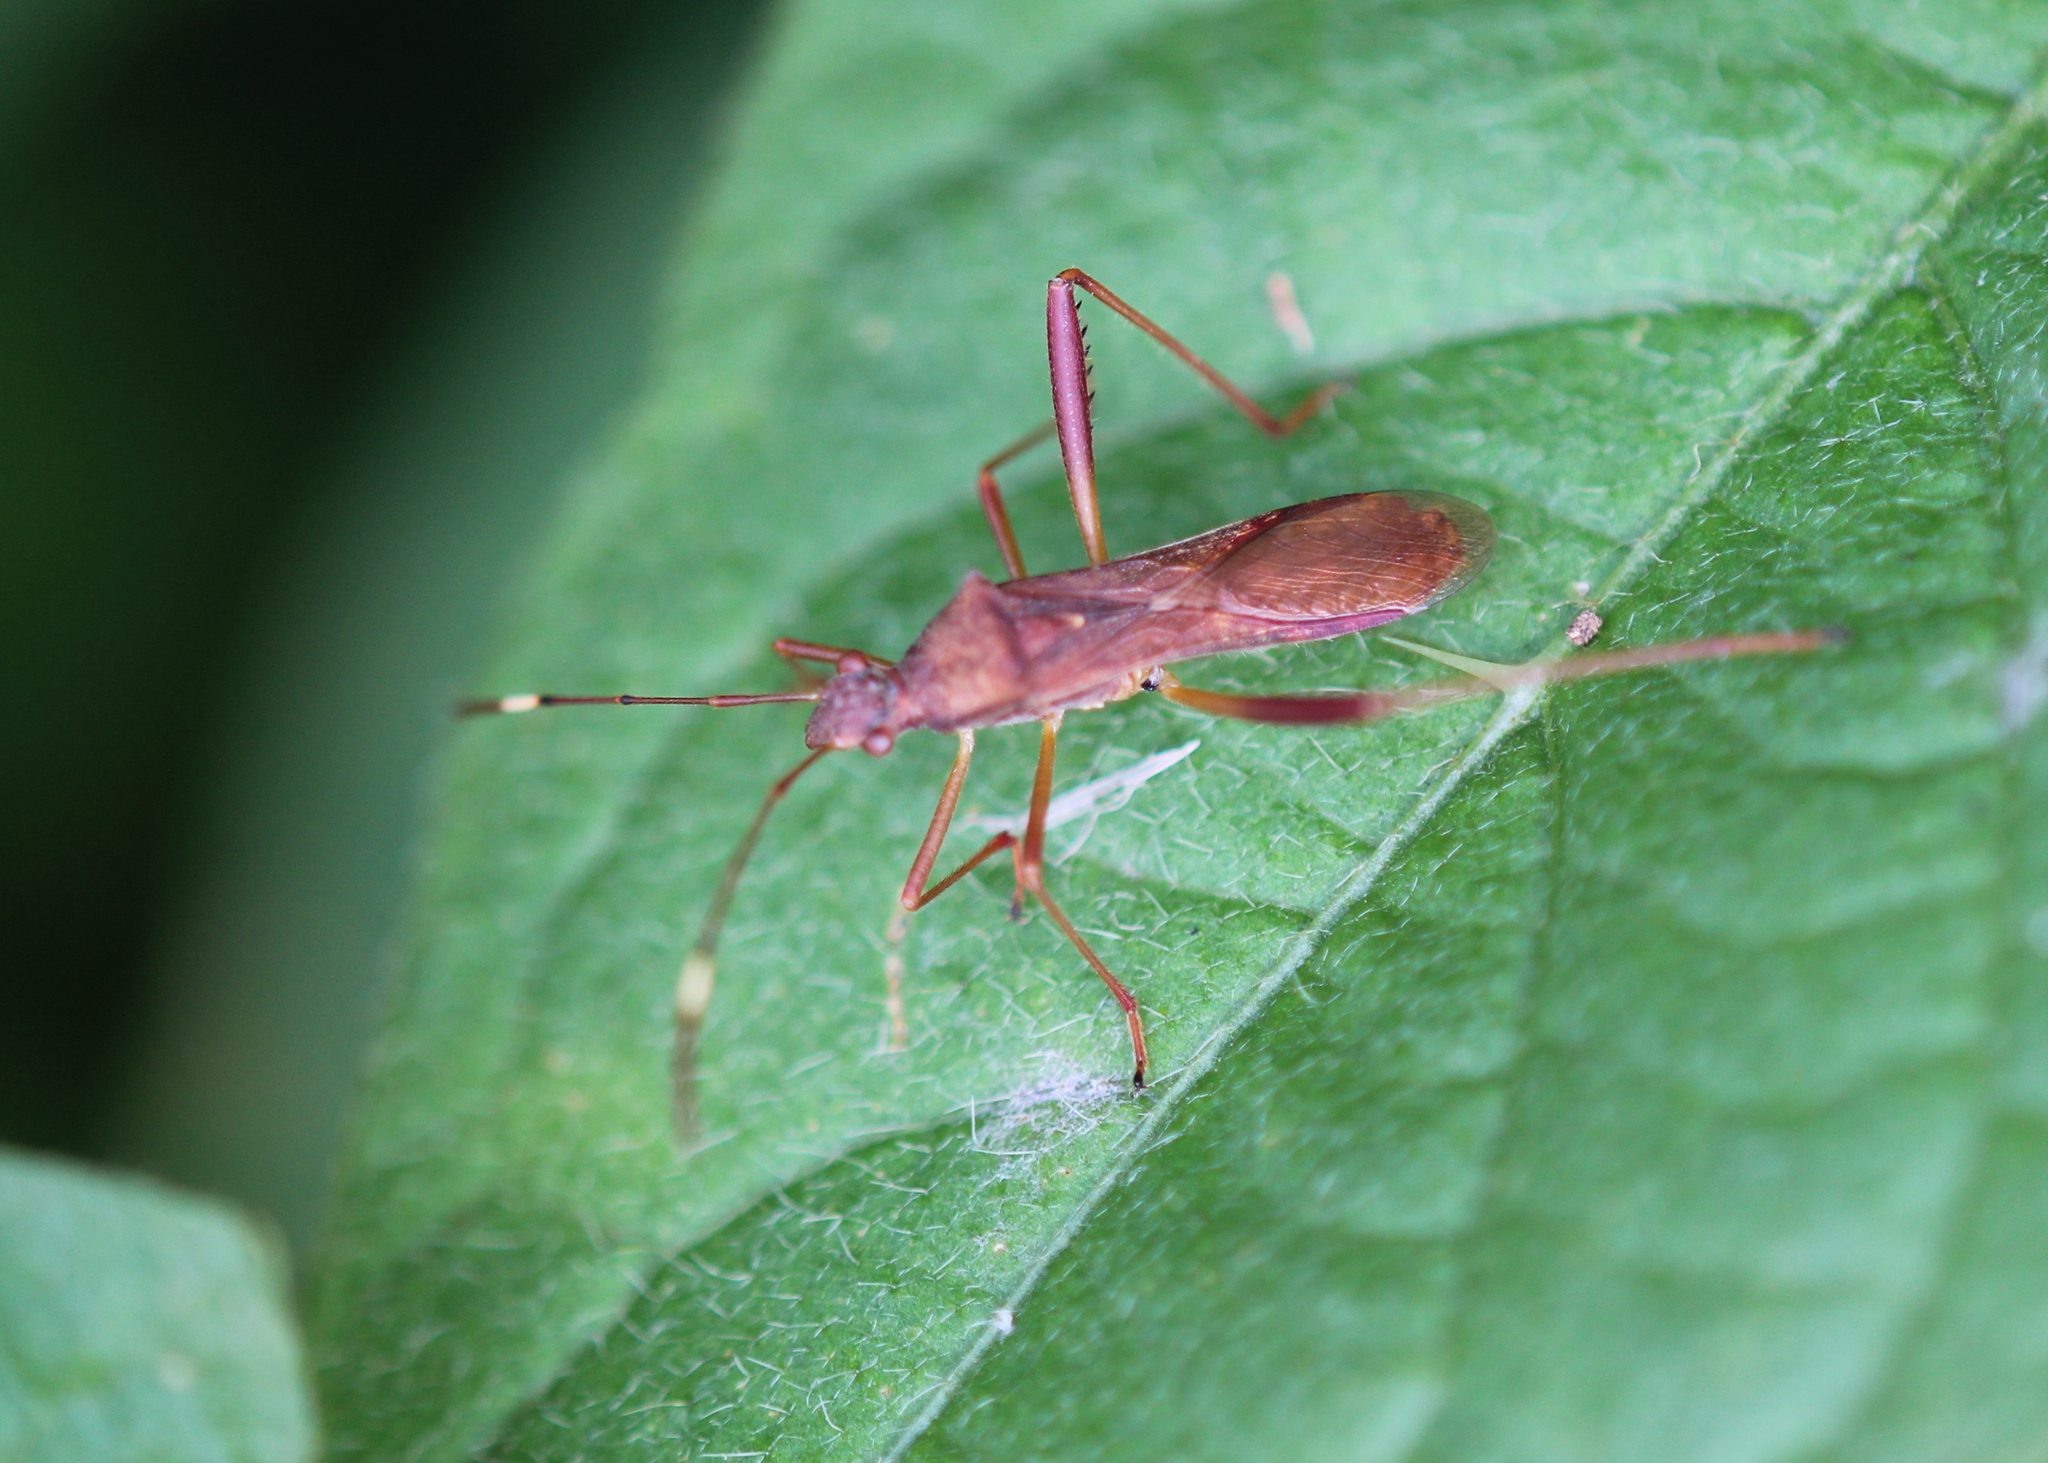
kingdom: Animalia
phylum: Arthropoda
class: Insecta
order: Hemiptera
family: Alydidae
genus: Megalotomus
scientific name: Megalotomus quinquespinosus
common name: Lupine bug
